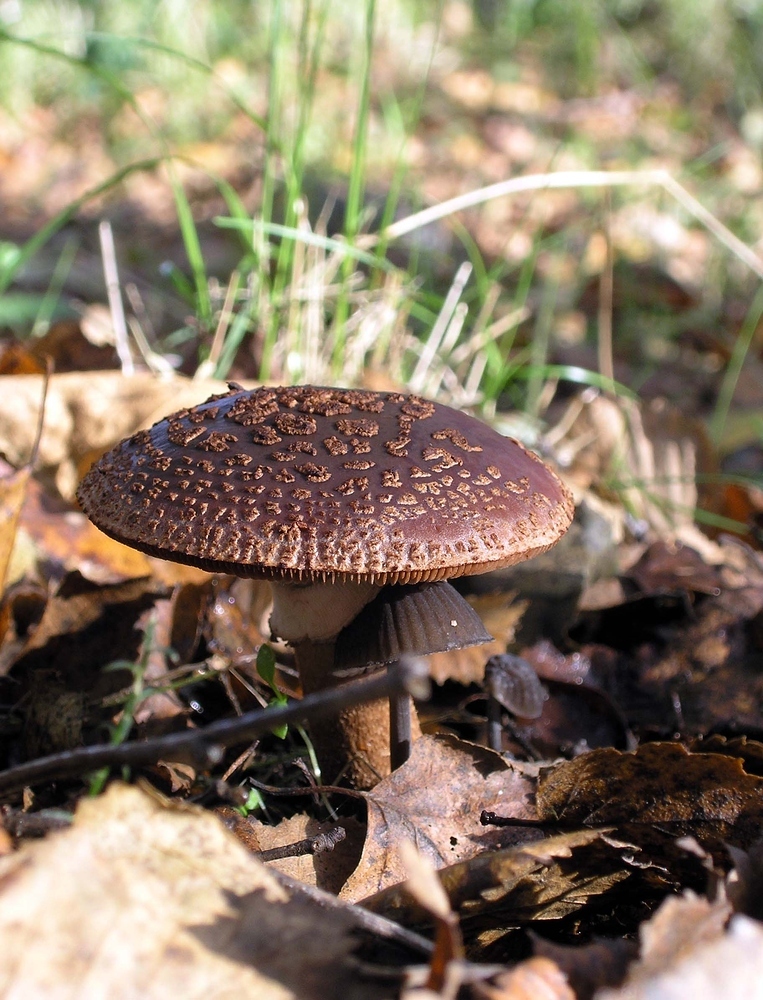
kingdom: Fungi
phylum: Basidiomycota
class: Agaricomycetes
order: Agaricales
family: Amanitaceae
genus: Amanita
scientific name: Amanita rubescens
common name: Blusher
